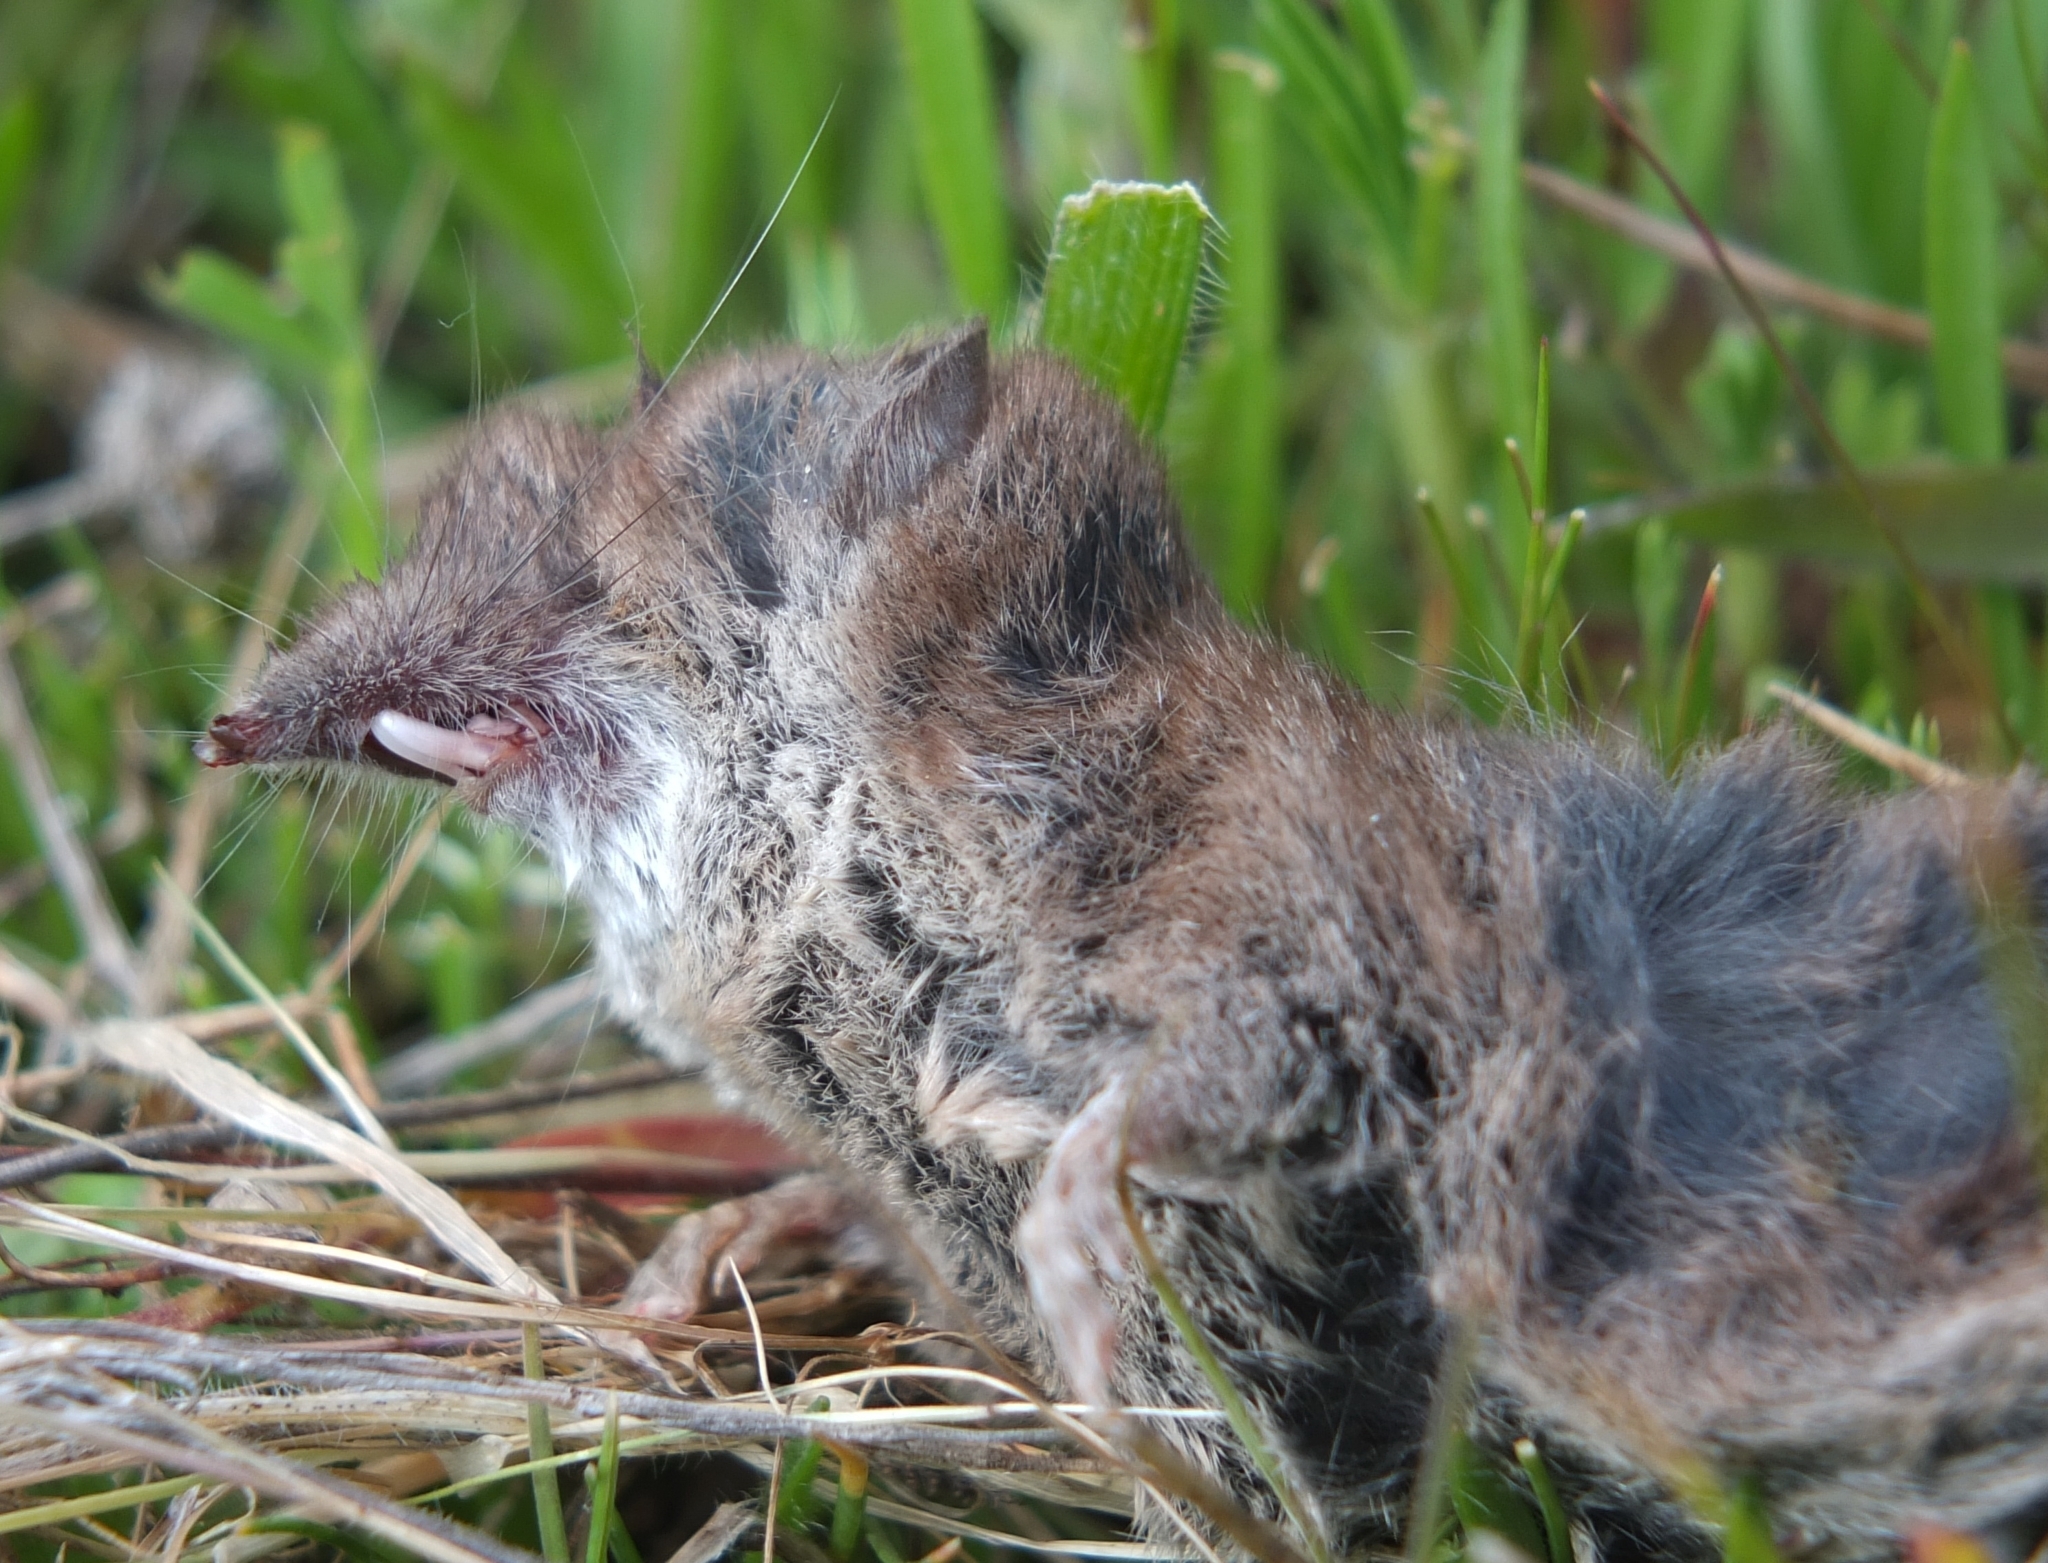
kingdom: Animalia
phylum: Chordata
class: Mammalia
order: Soricomorpha
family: Soricidae
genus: Crocidura
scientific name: Crocidura pachyura
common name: North african white-toothed shrew
